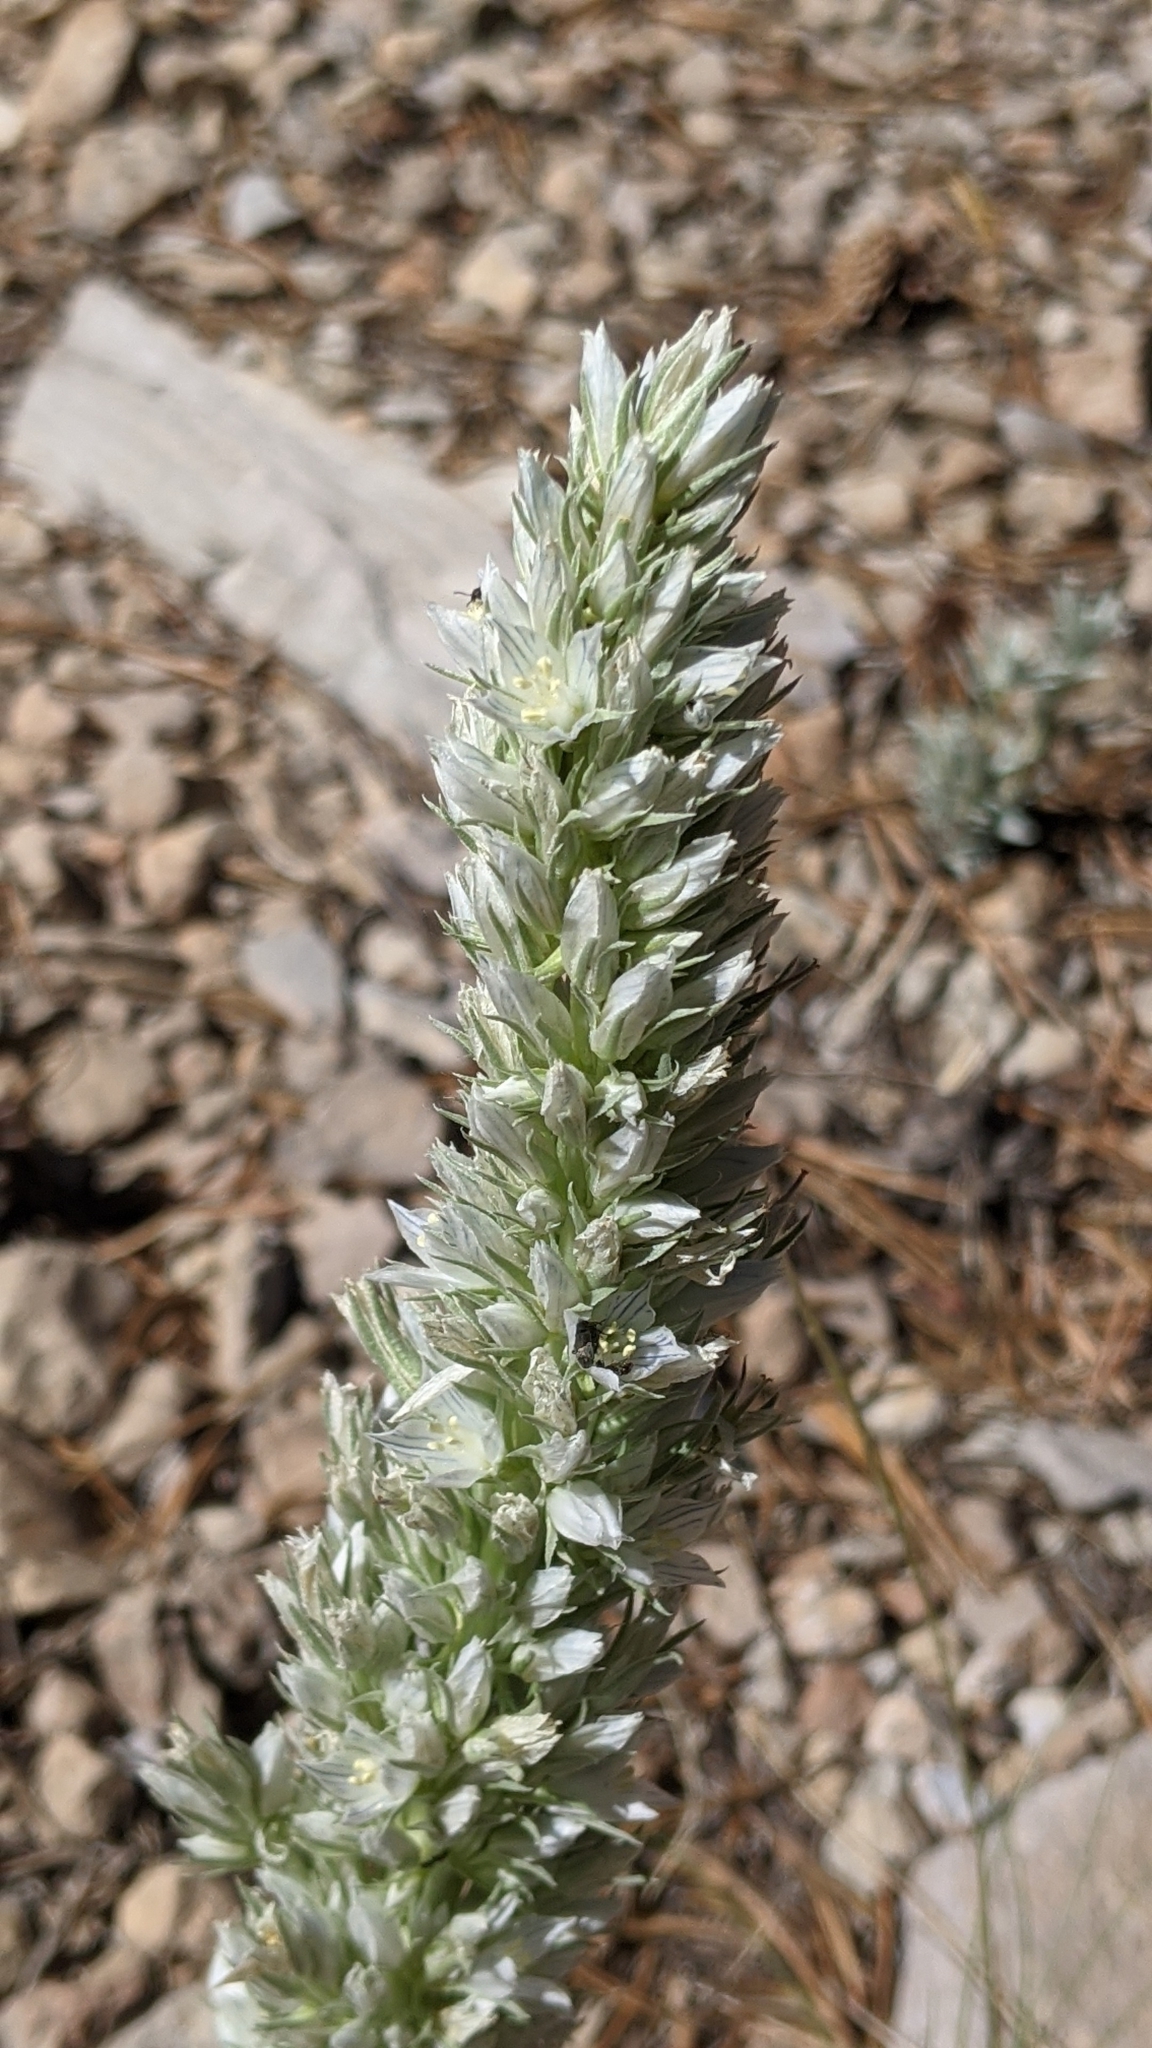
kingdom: Plantae
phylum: Tracheophyta
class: Magnoliopsida
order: Gentianales
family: Gentianaceae
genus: Frasera
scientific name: Frasera tubulosa
